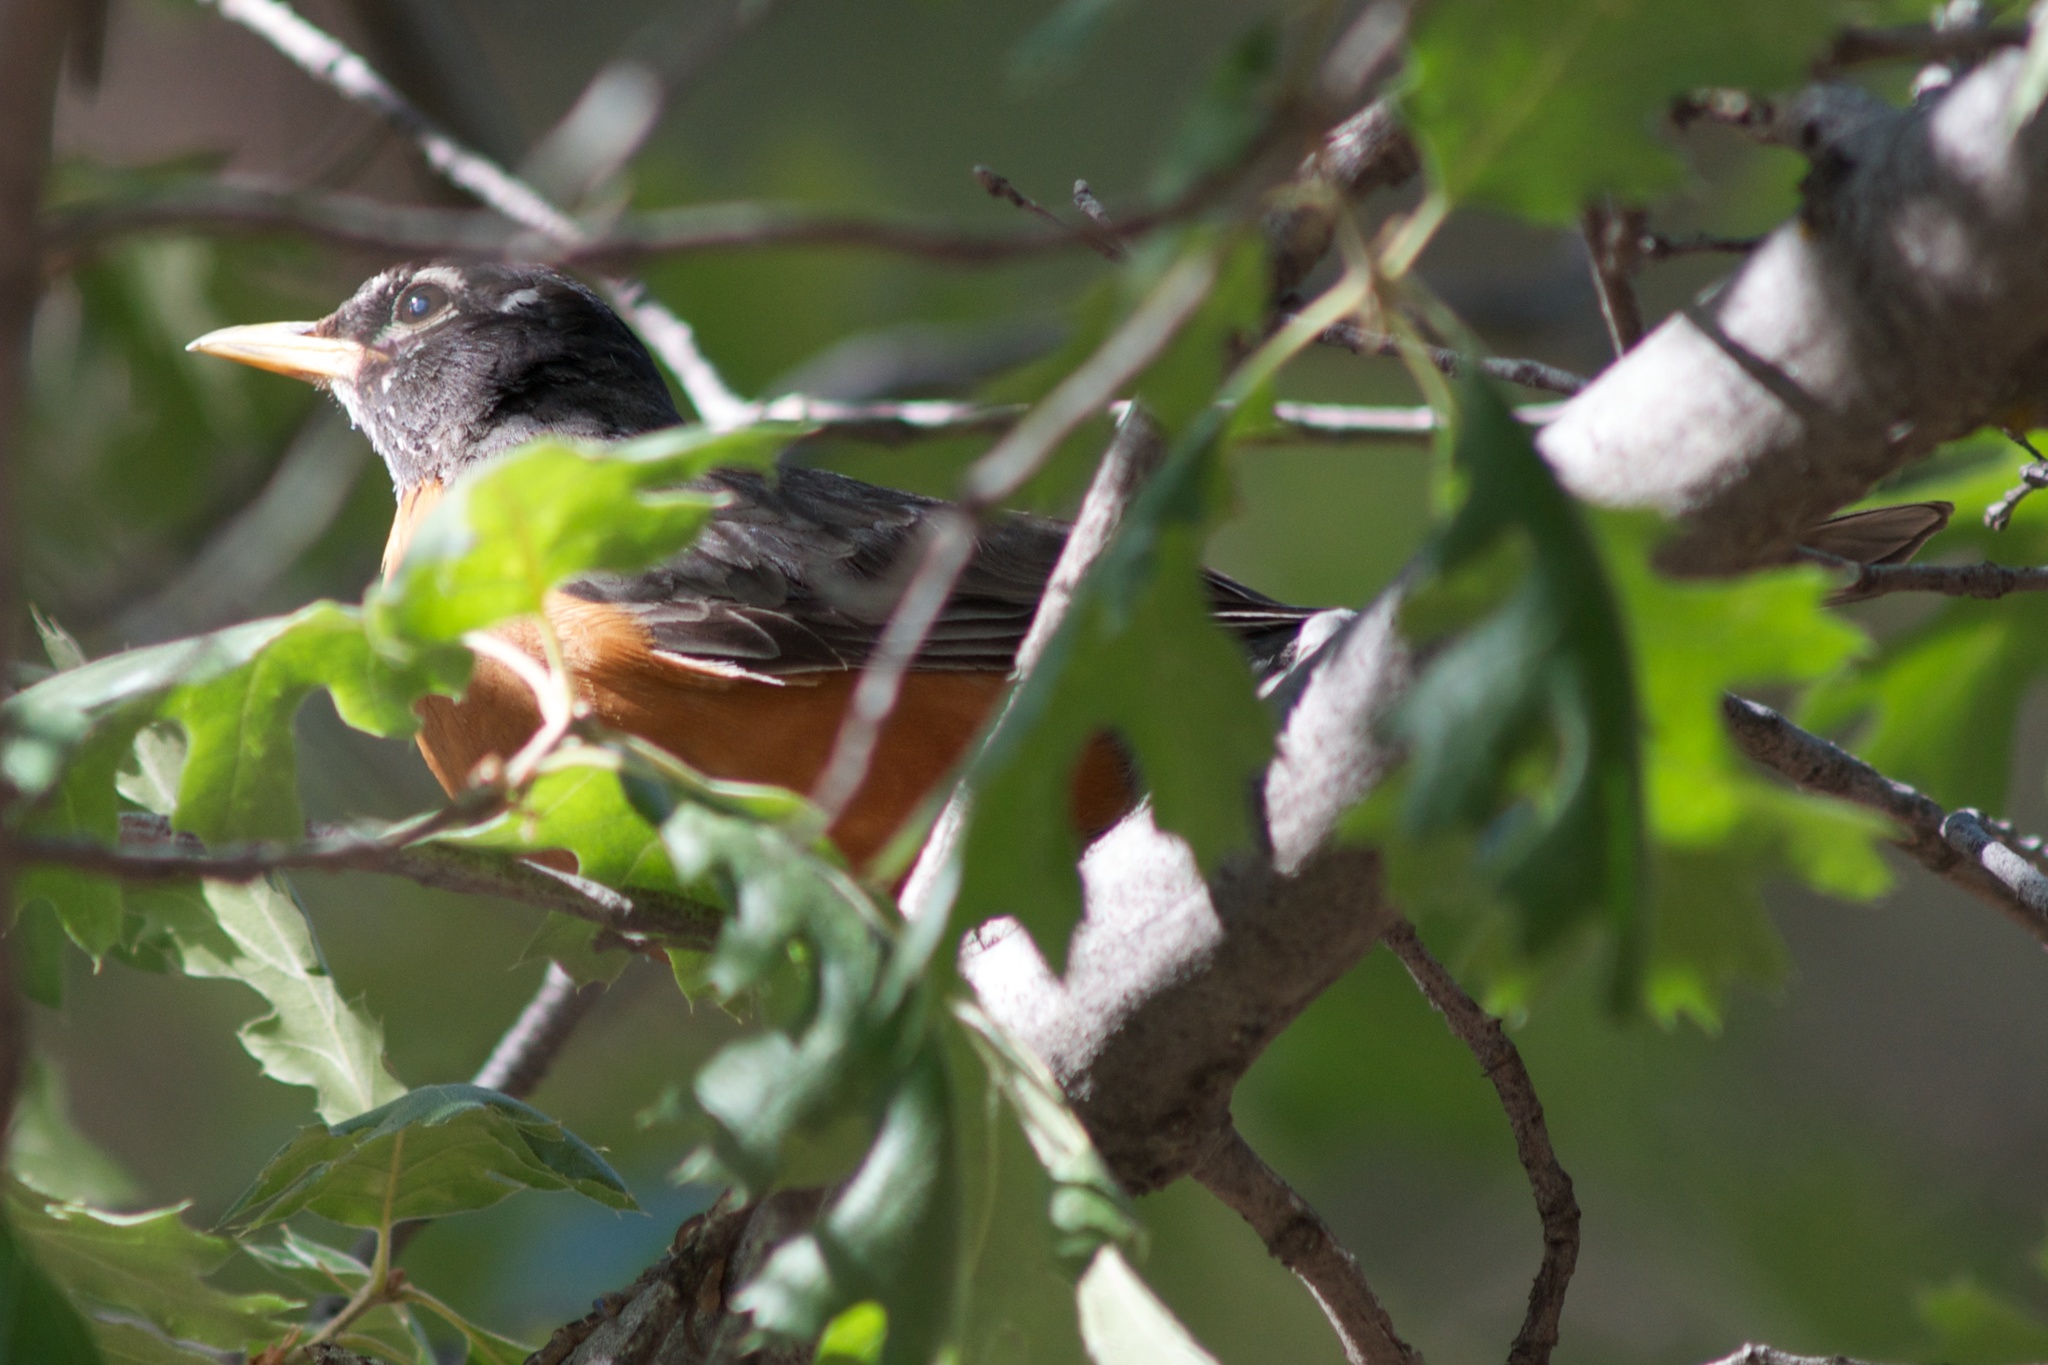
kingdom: Animalia
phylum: Chordata
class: Aves
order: Passeriformes
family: Turdidae
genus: Turdus
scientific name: Turdus migratorius
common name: American robin
